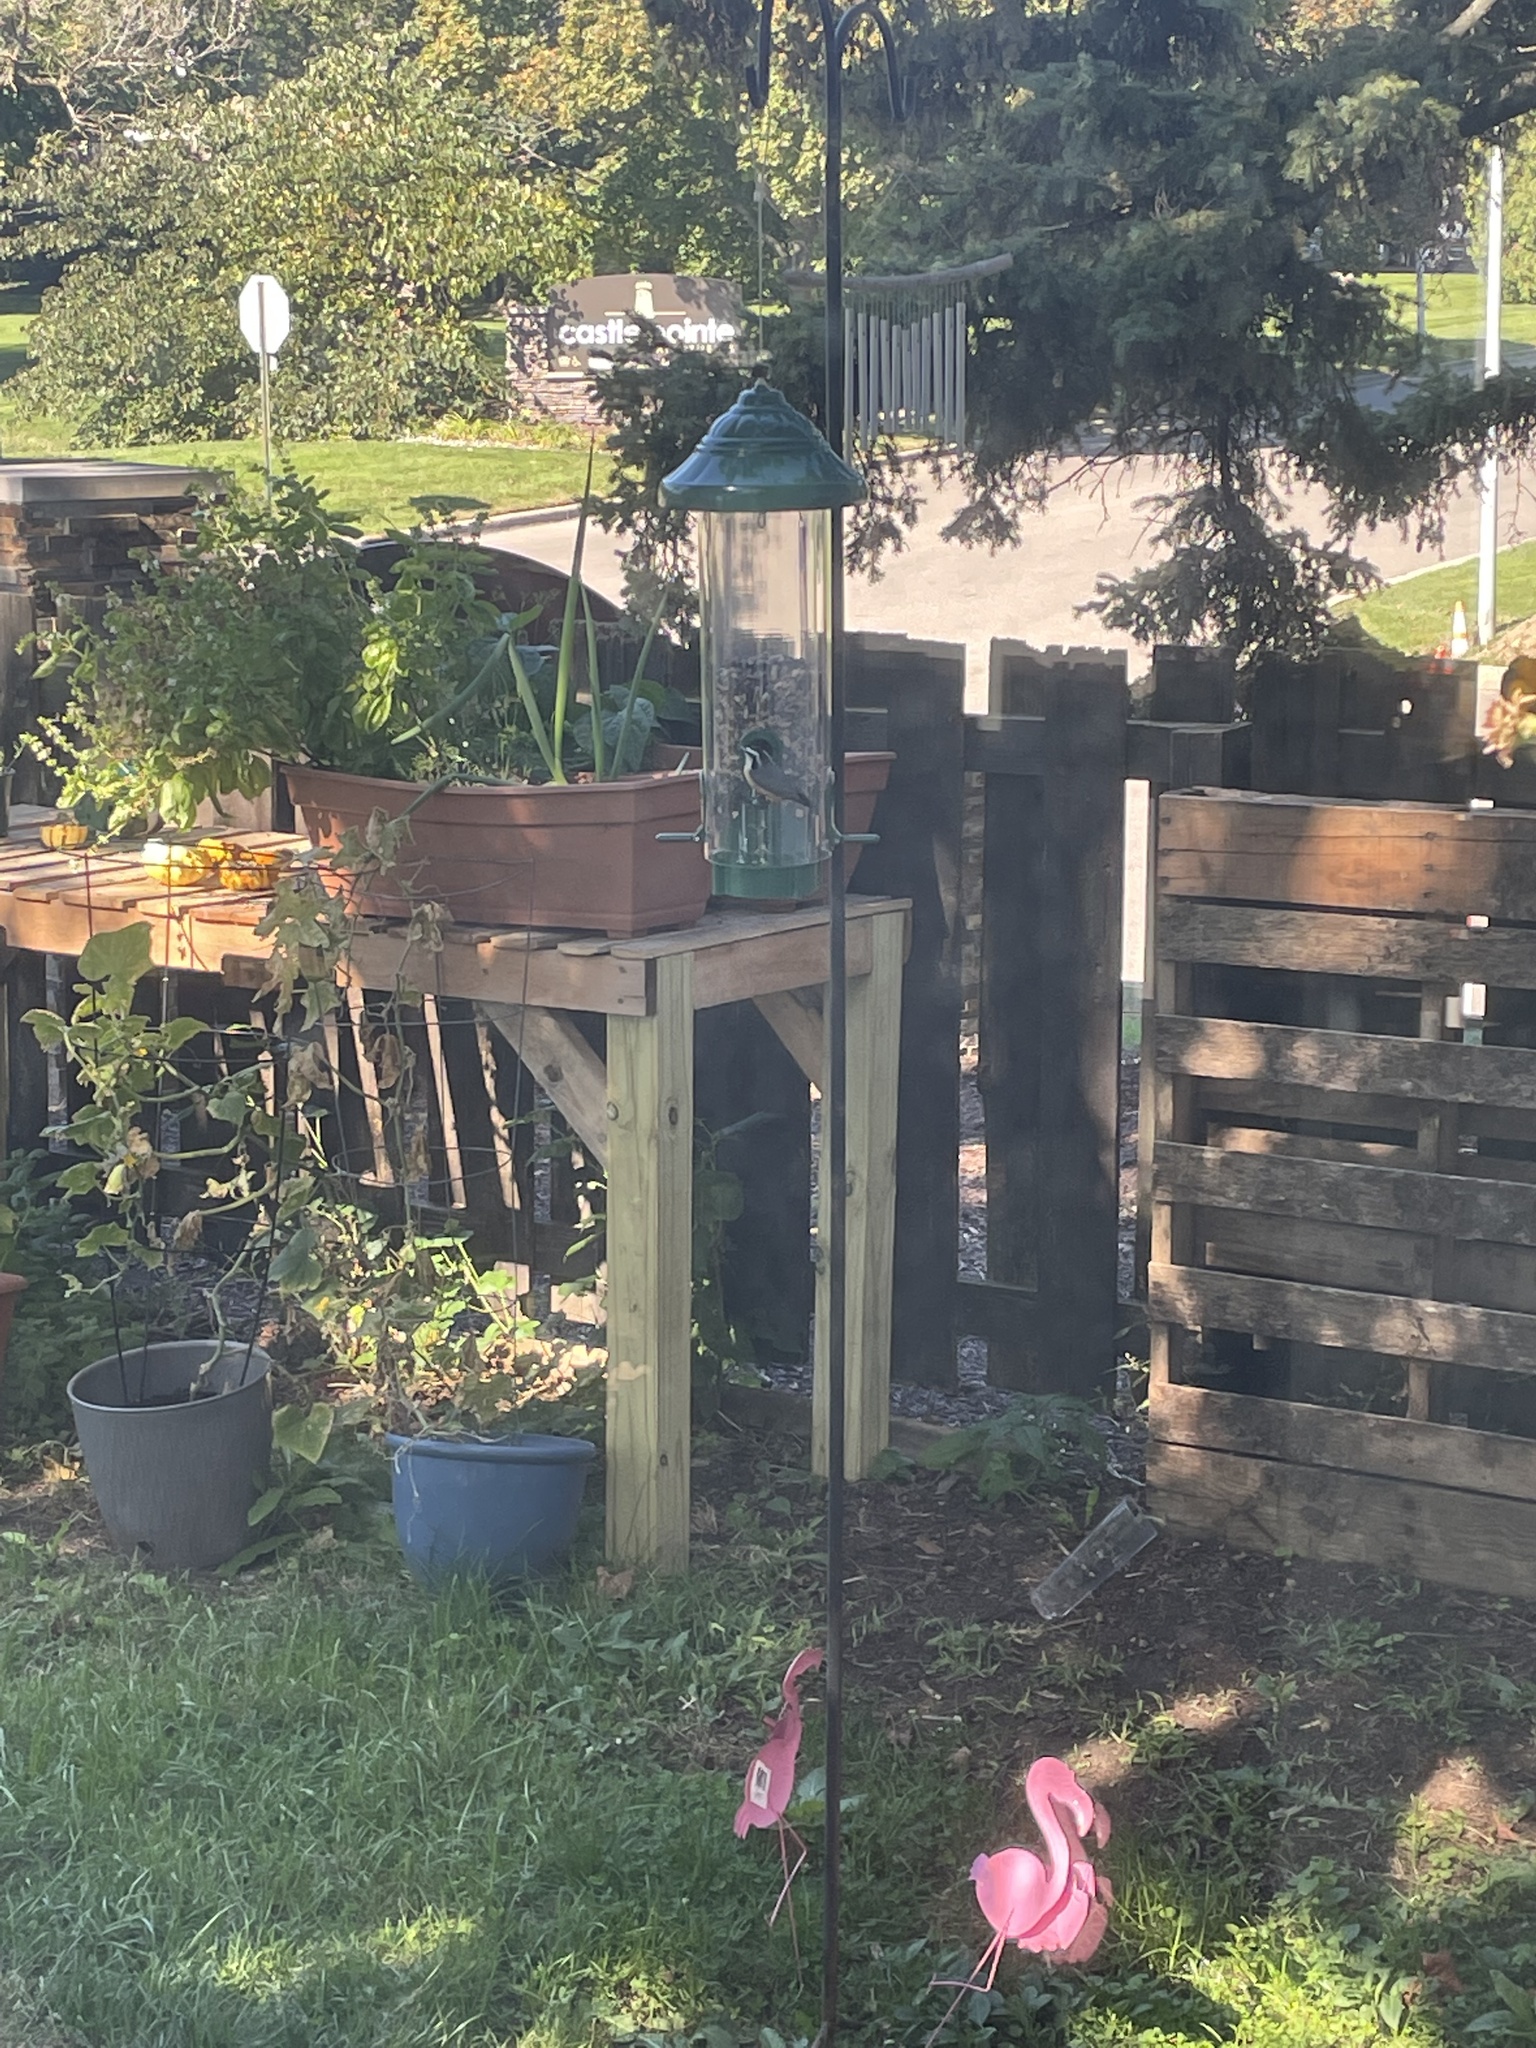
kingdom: Animalia
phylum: Chordata
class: Aves
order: Passeriformes
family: Sittidae
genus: Sitta
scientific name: Sitta canadensis
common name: Red-breasted nuthatch
